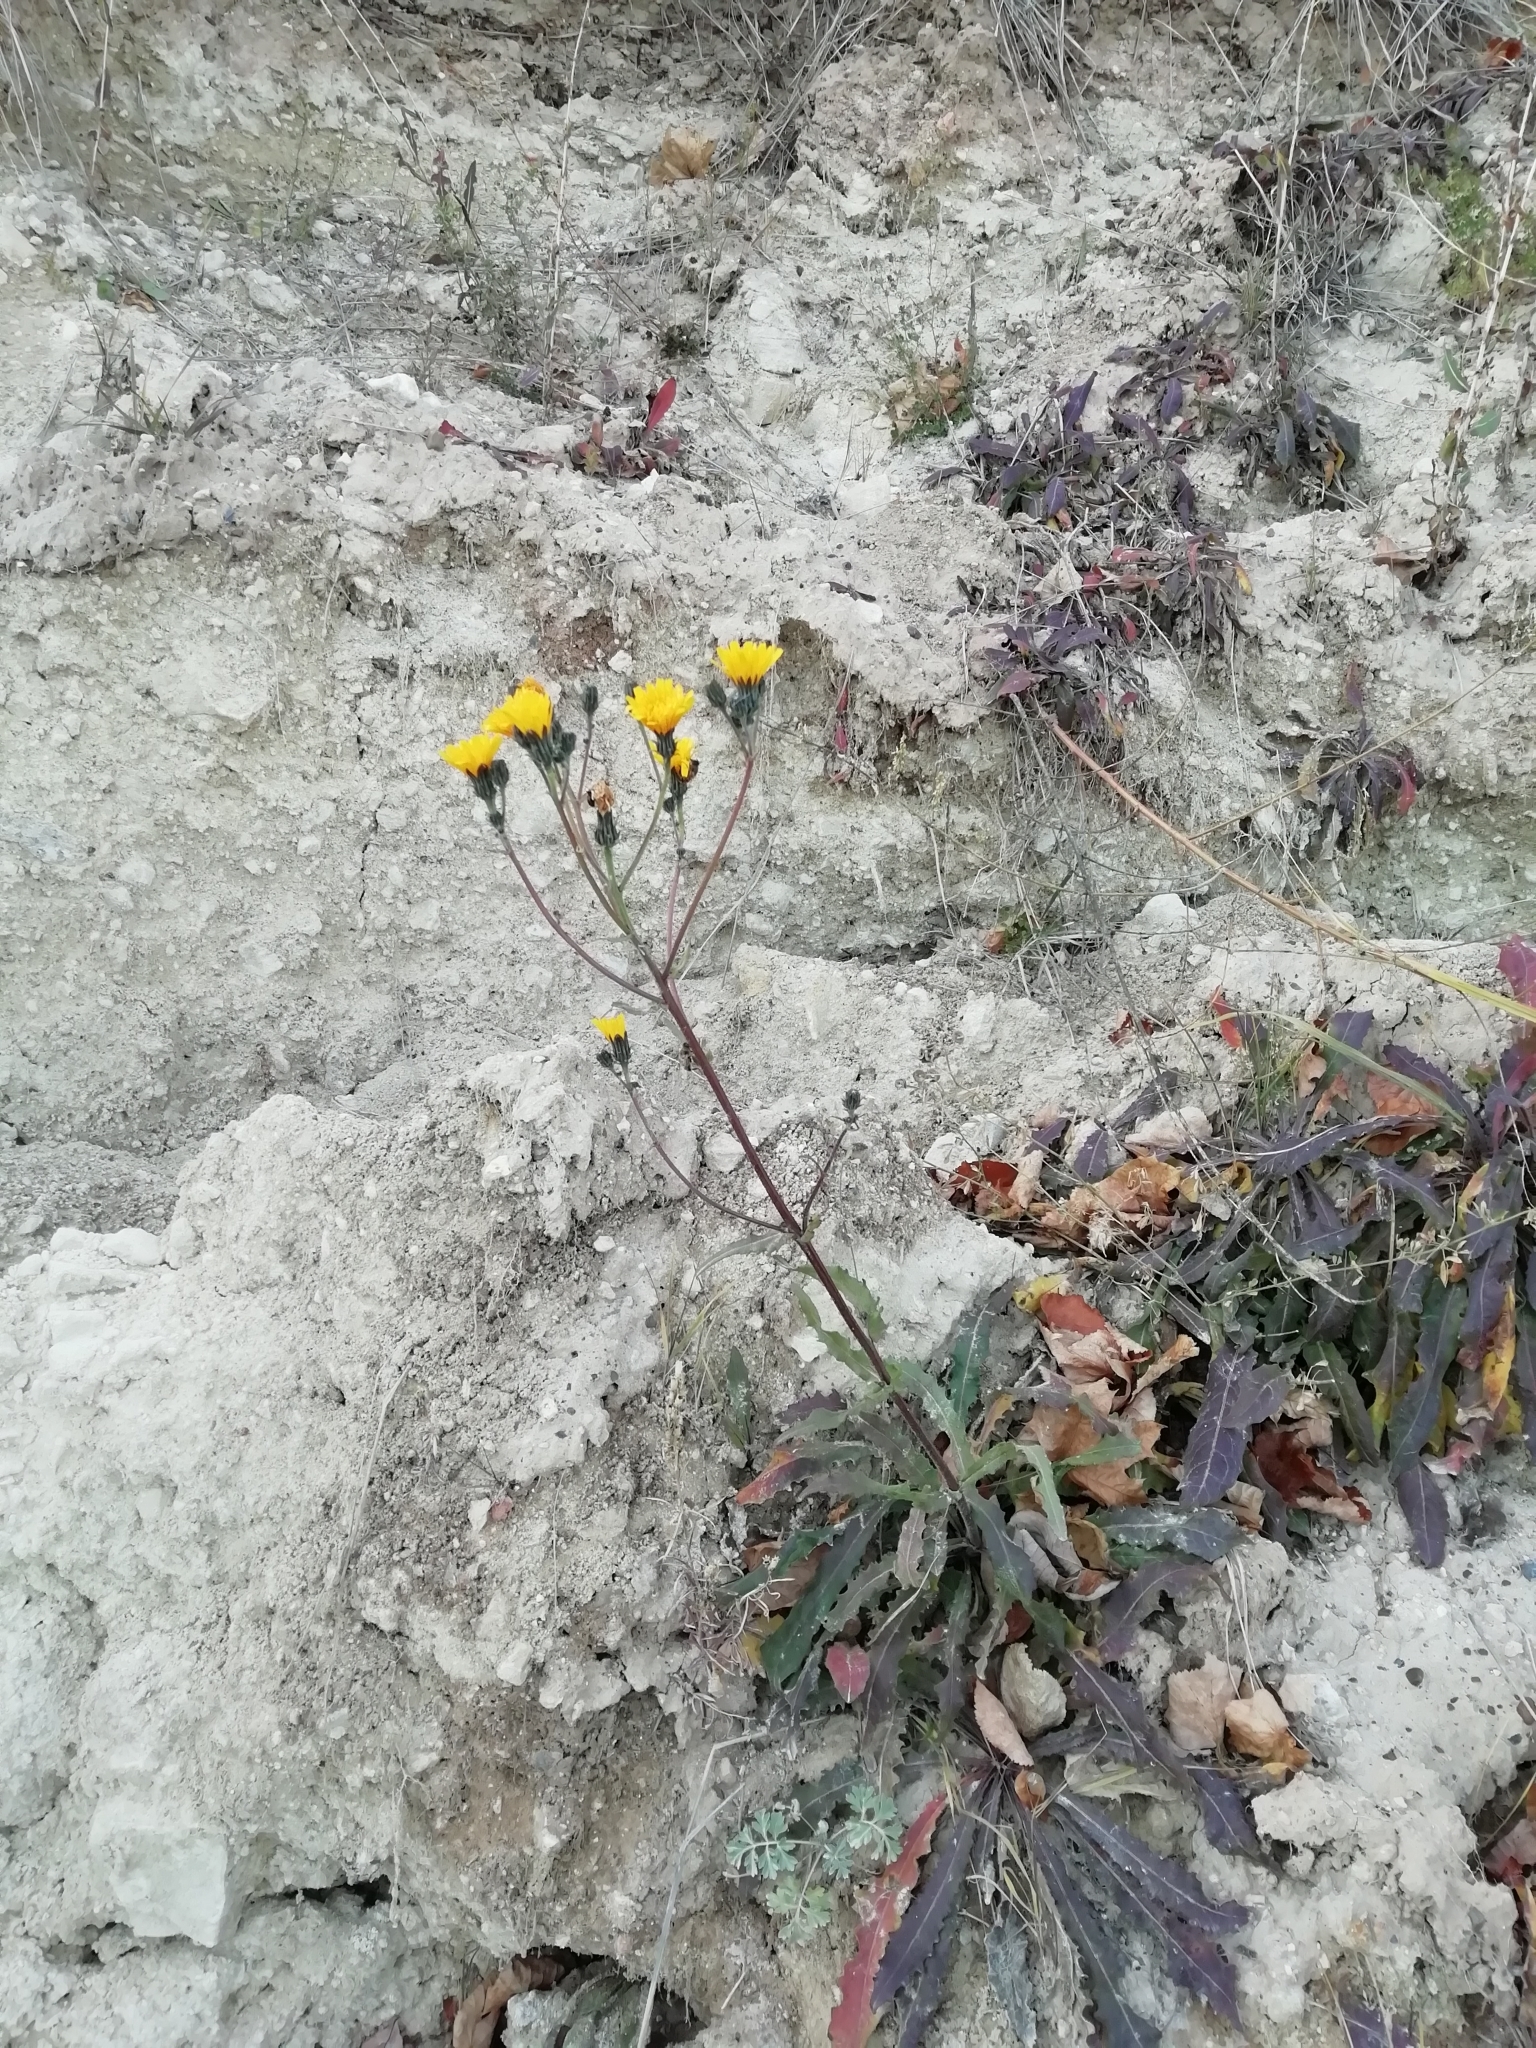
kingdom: Plantae
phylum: Tracheophyta
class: Magnoliopsida
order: Asterales
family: Asteraceae
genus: Picris
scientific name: Picris hieracioides
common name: Hawkweed oxtongue
